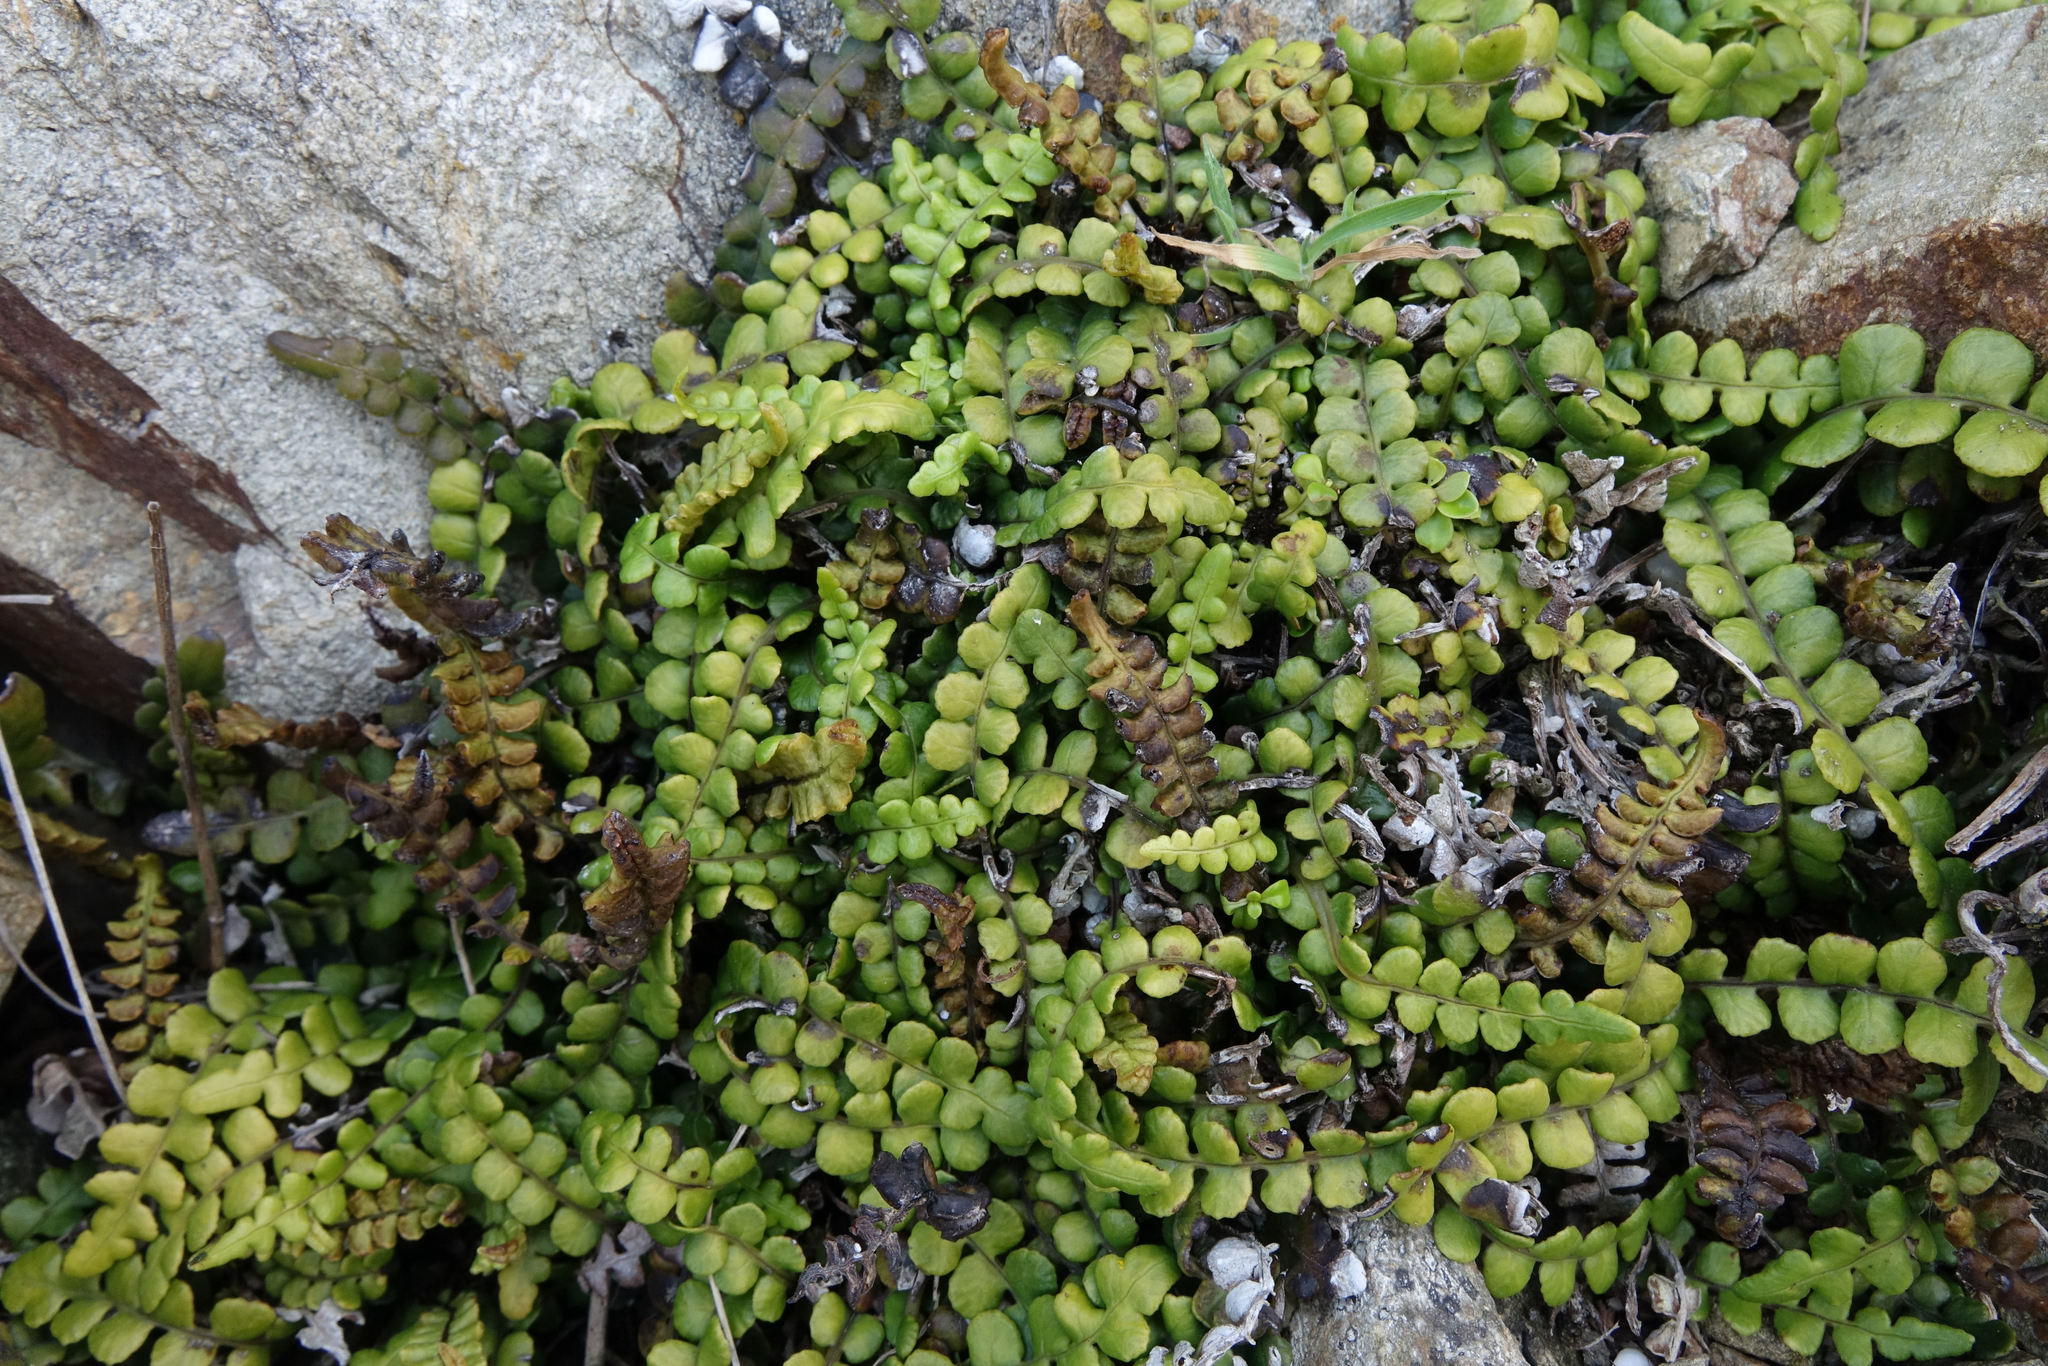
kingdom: Plantae
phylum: Tracheophyta
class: Polypodiopsida
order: Polypodiales
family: Blechnaceae
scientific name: Blechnaceae
